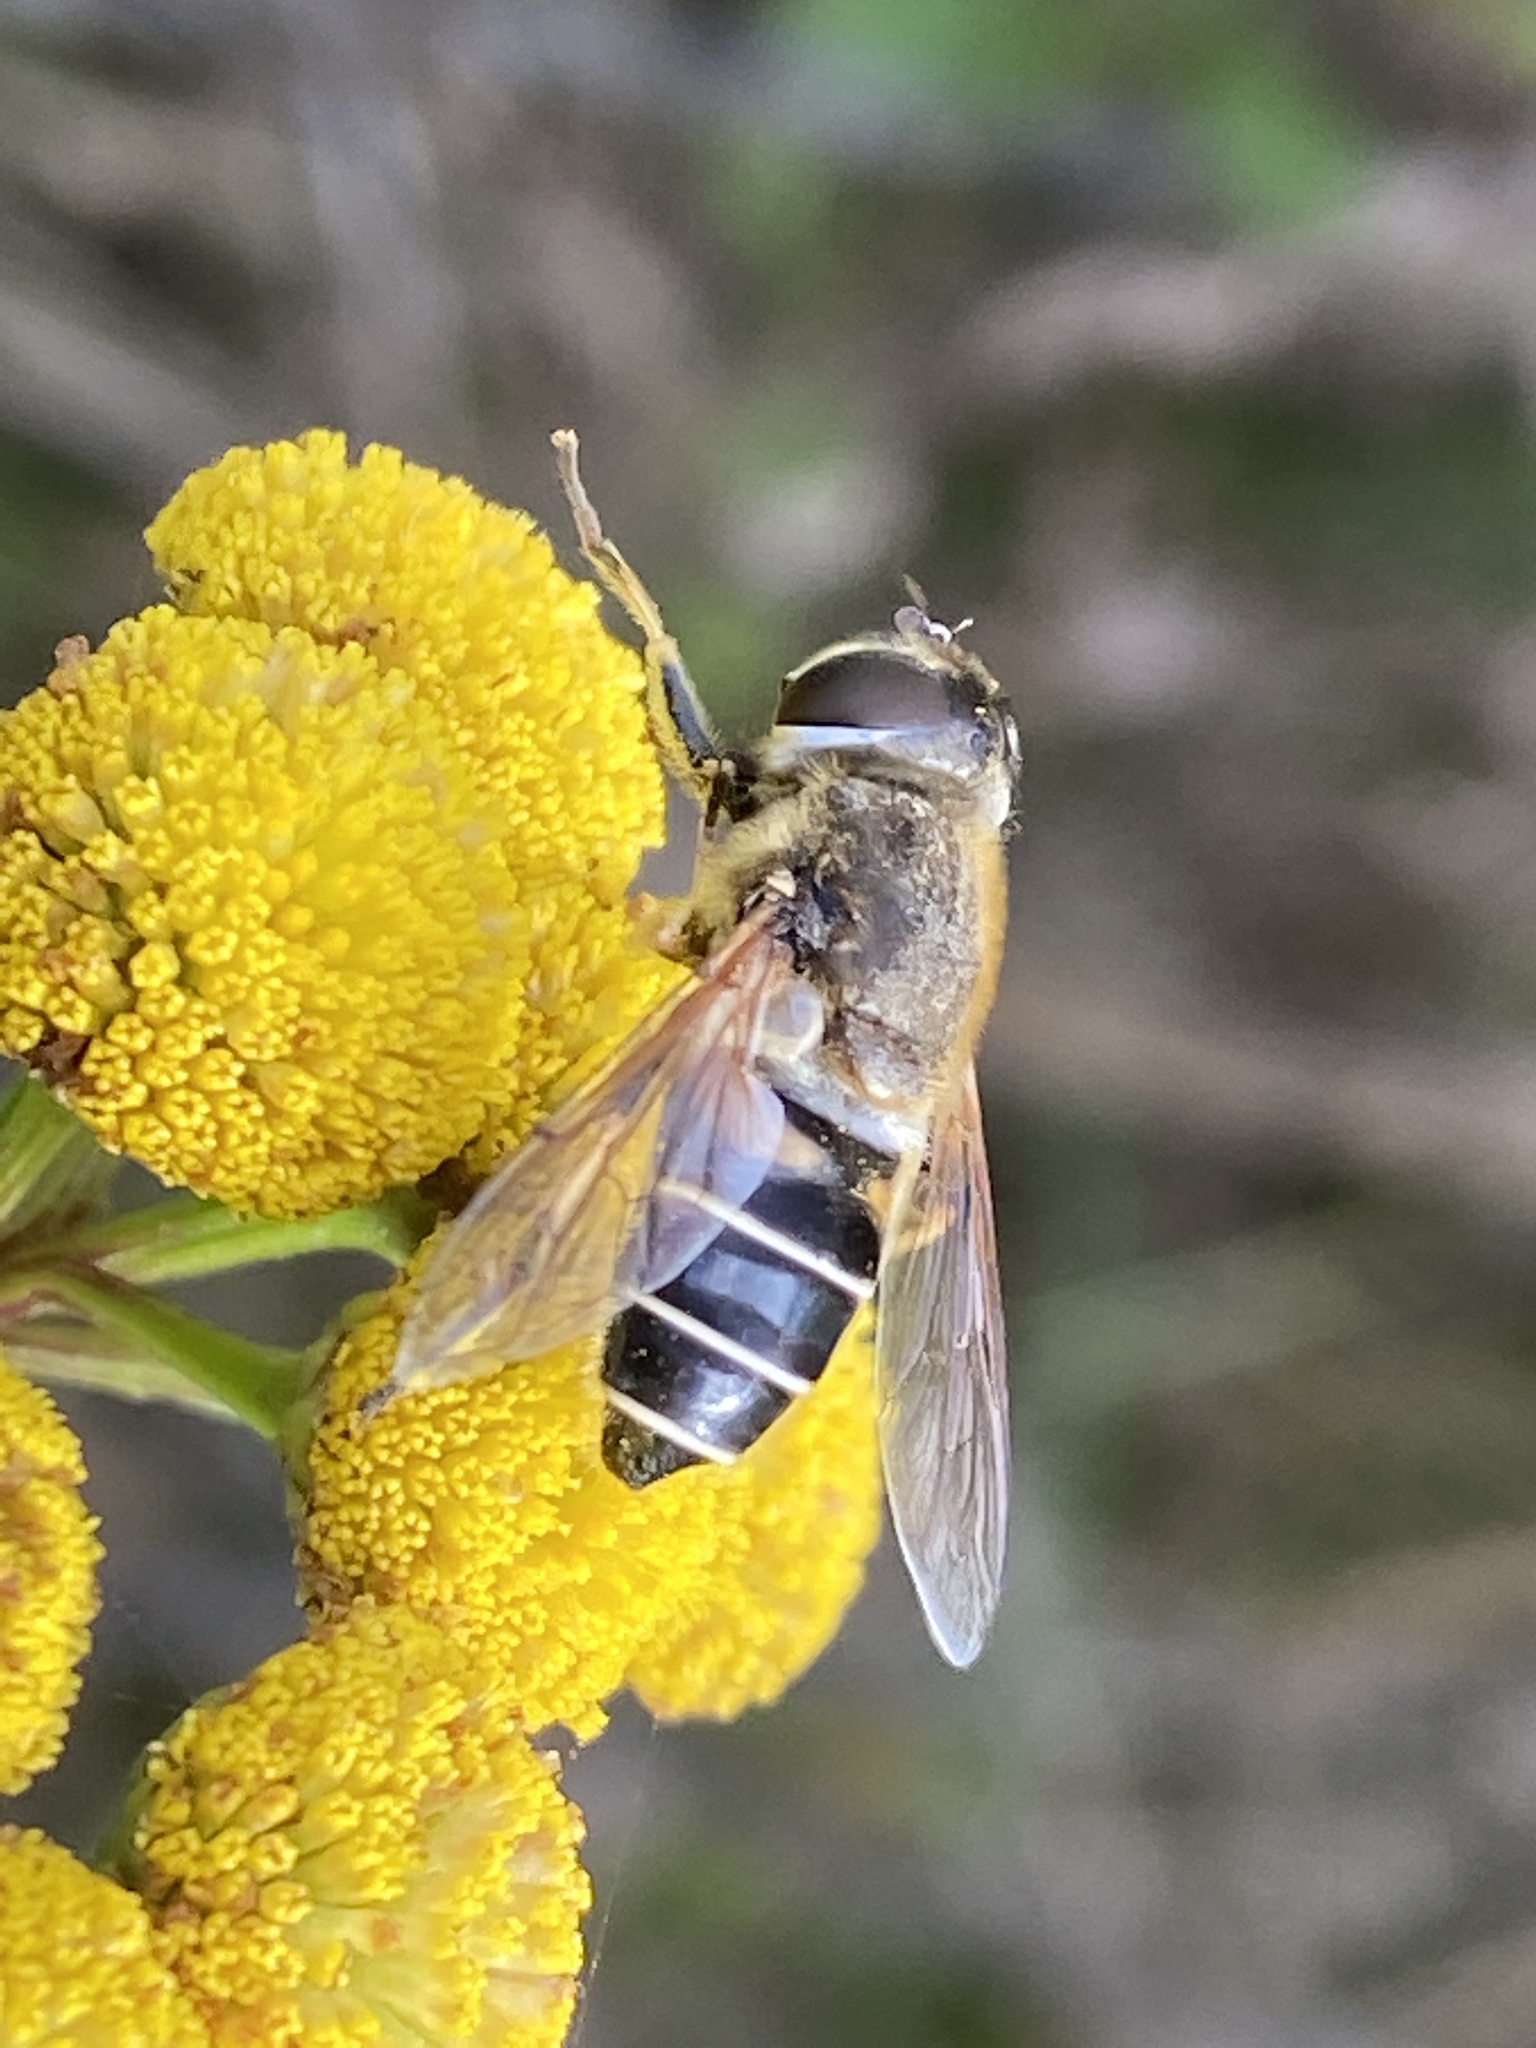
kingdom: Animalia
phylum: Arthropoda
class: Insecta
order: Diptera
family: Syrphidae
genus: Eristalis
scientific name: Eristalis nemorum
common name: Orange-spined drone fly
